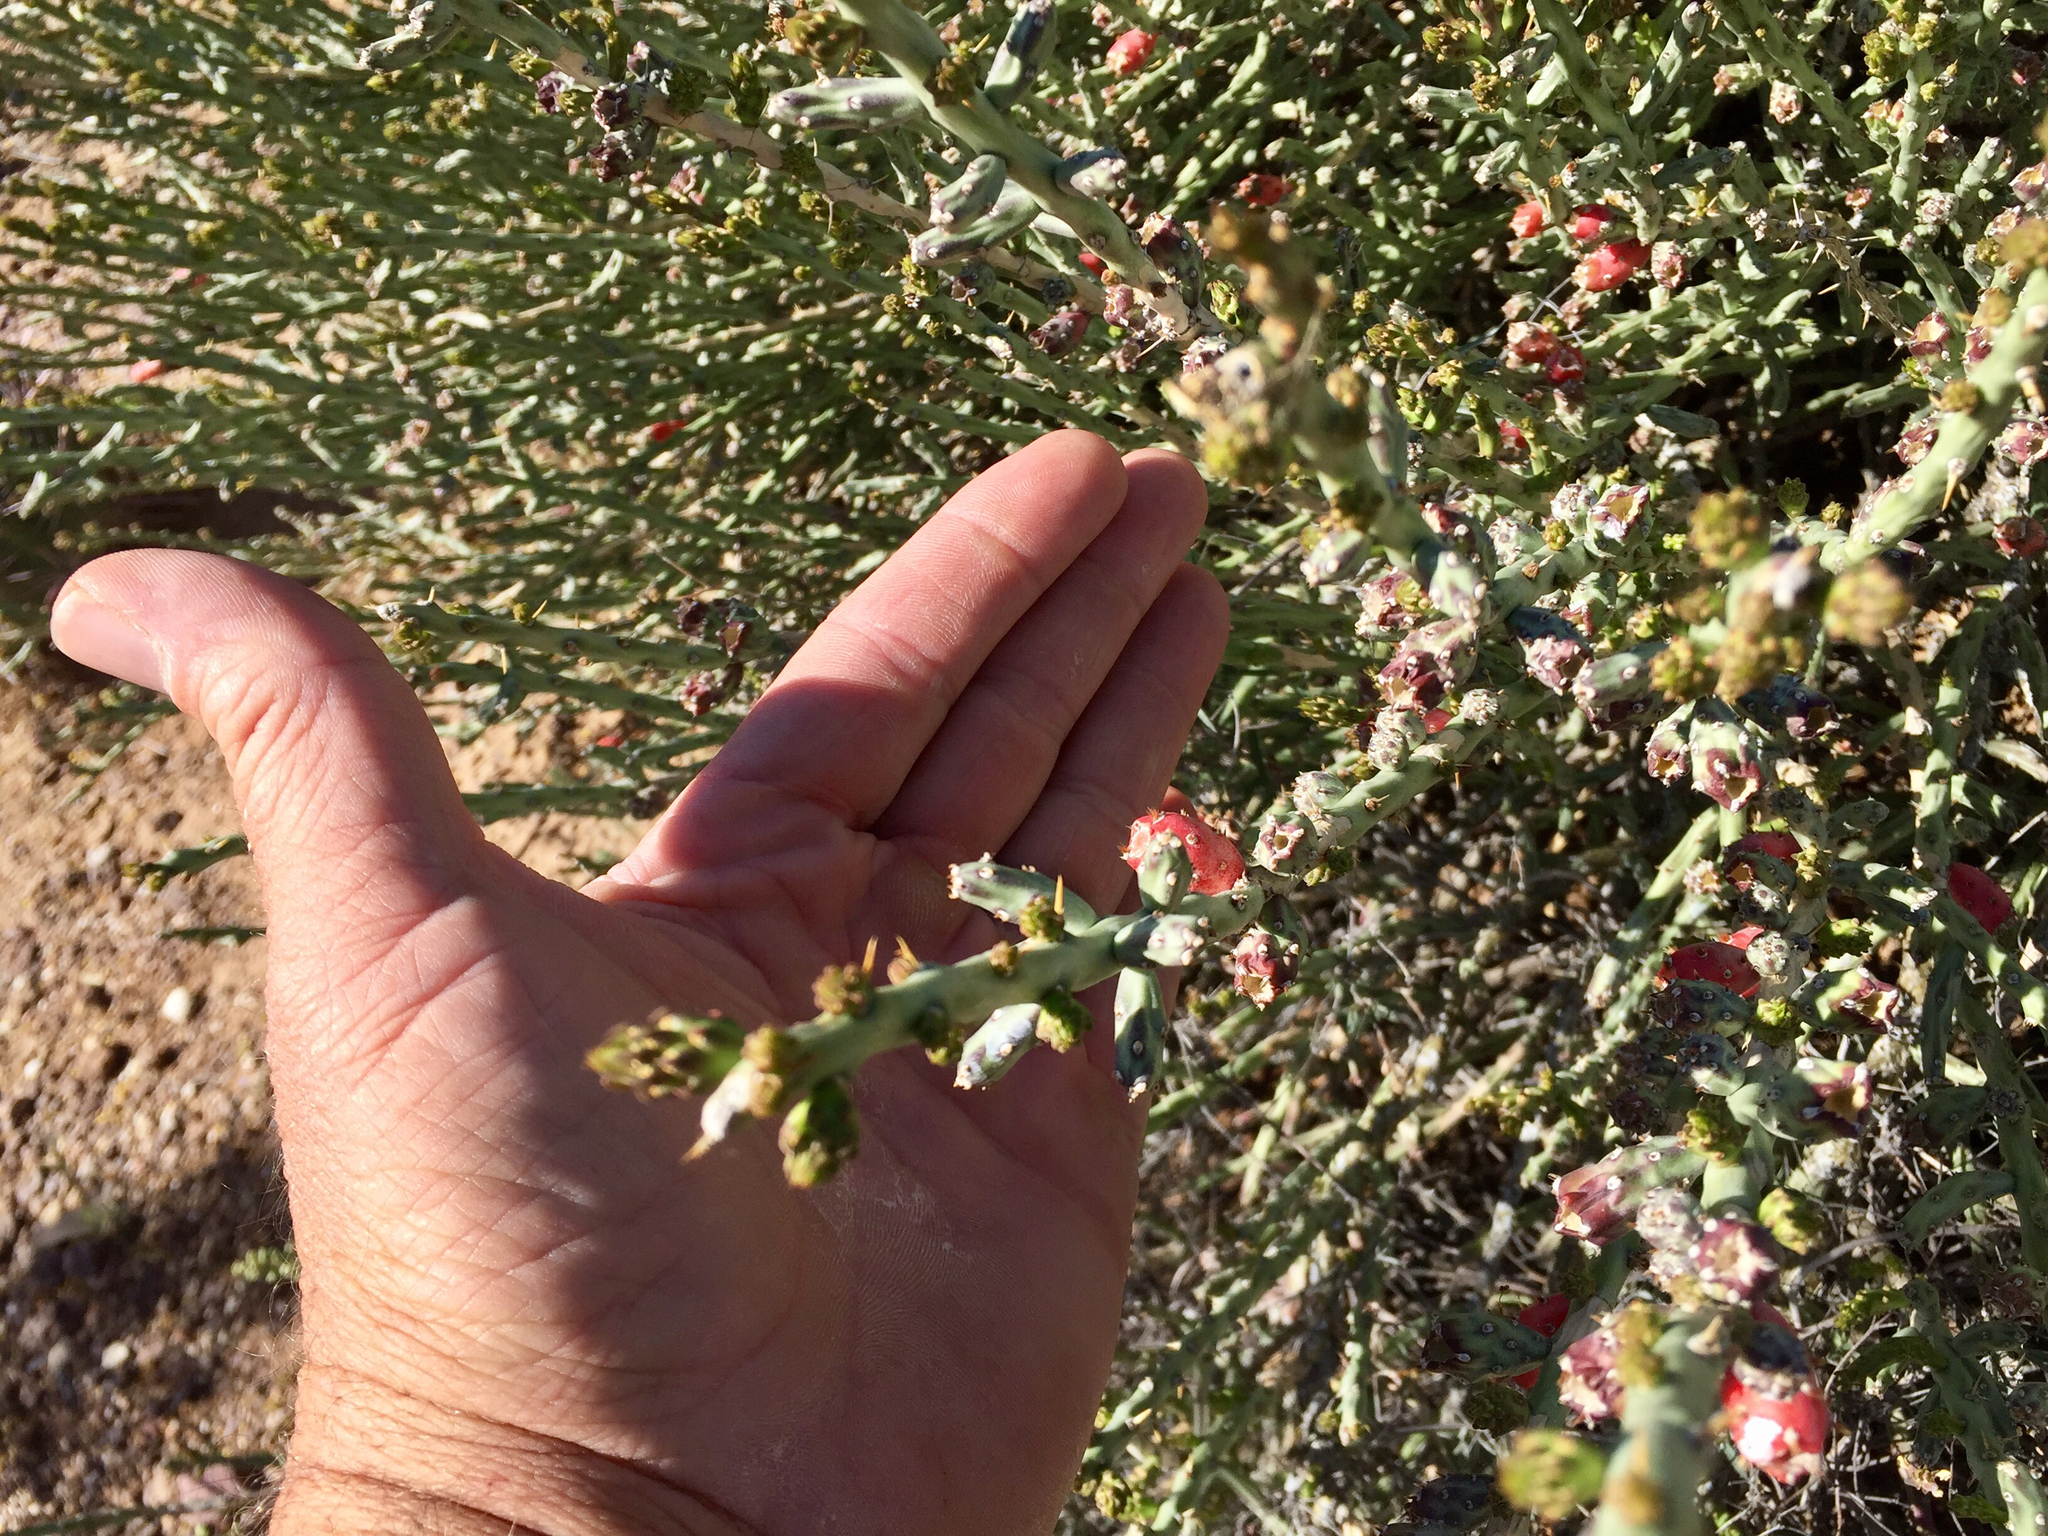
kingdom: Plantae
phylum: Tracheophyta
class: Magnoliopsida
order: Caryophyllales
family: Cactaceae
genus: Cylindropuntia
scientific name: Cylindropuntia leptocaulis
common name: Christmas cactus
